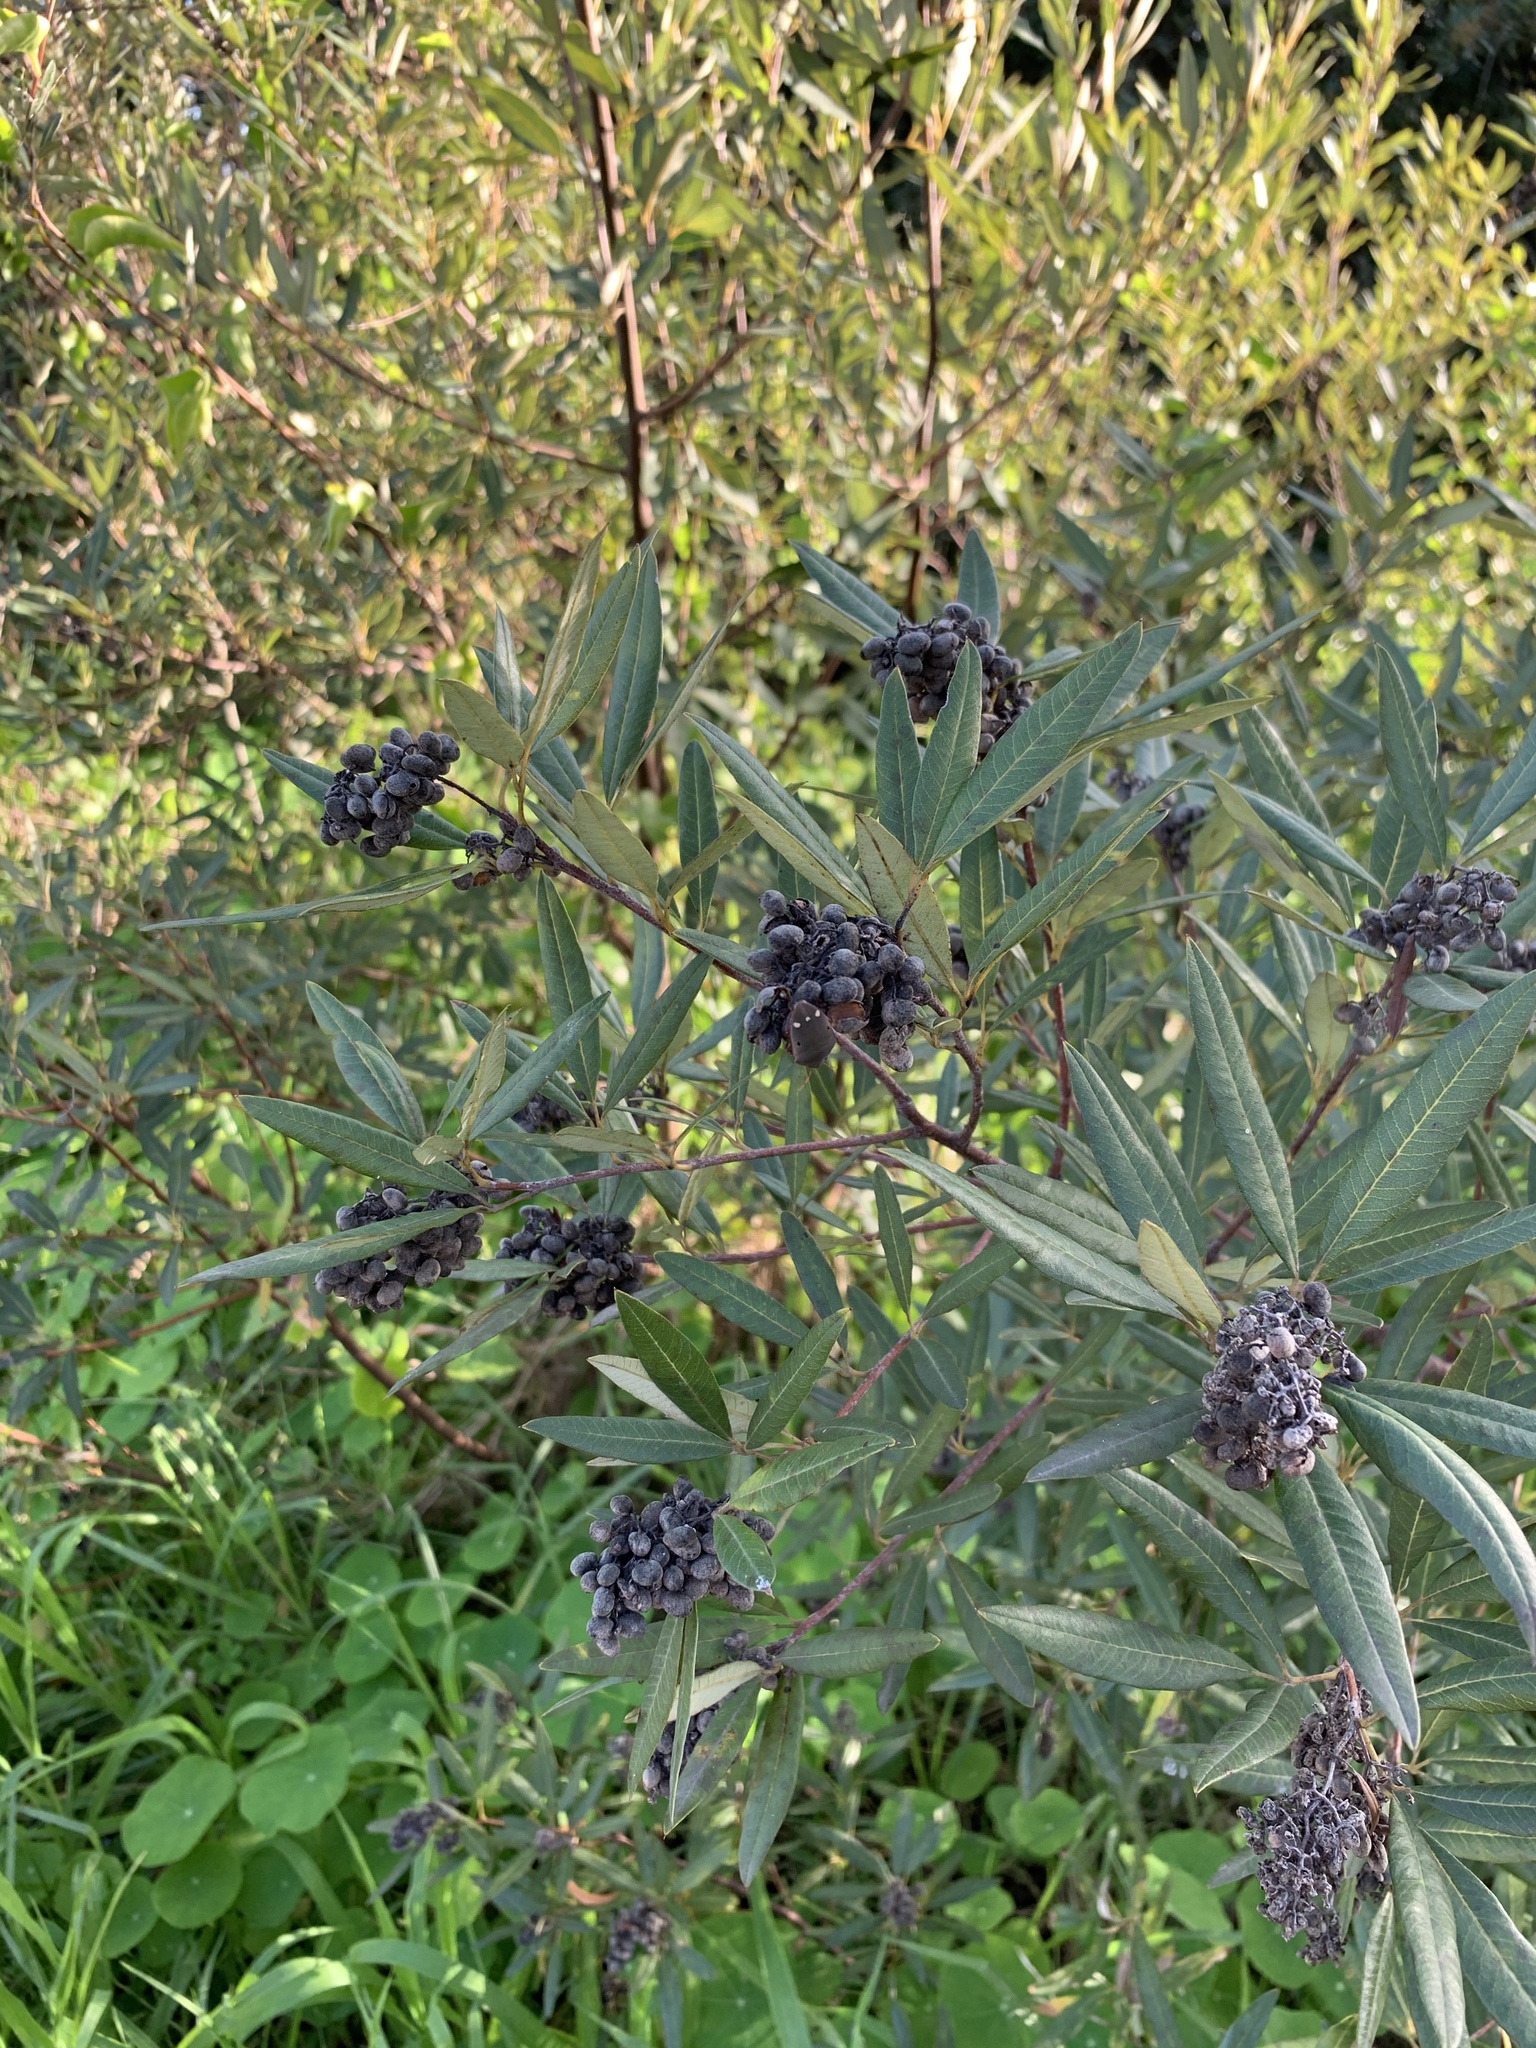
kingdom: Plantae
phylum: Tracheophyta
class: Magnoliopsida
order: Sapindales
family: Anacardiaceae
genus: Searsia
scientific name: Searsia angustifolia
